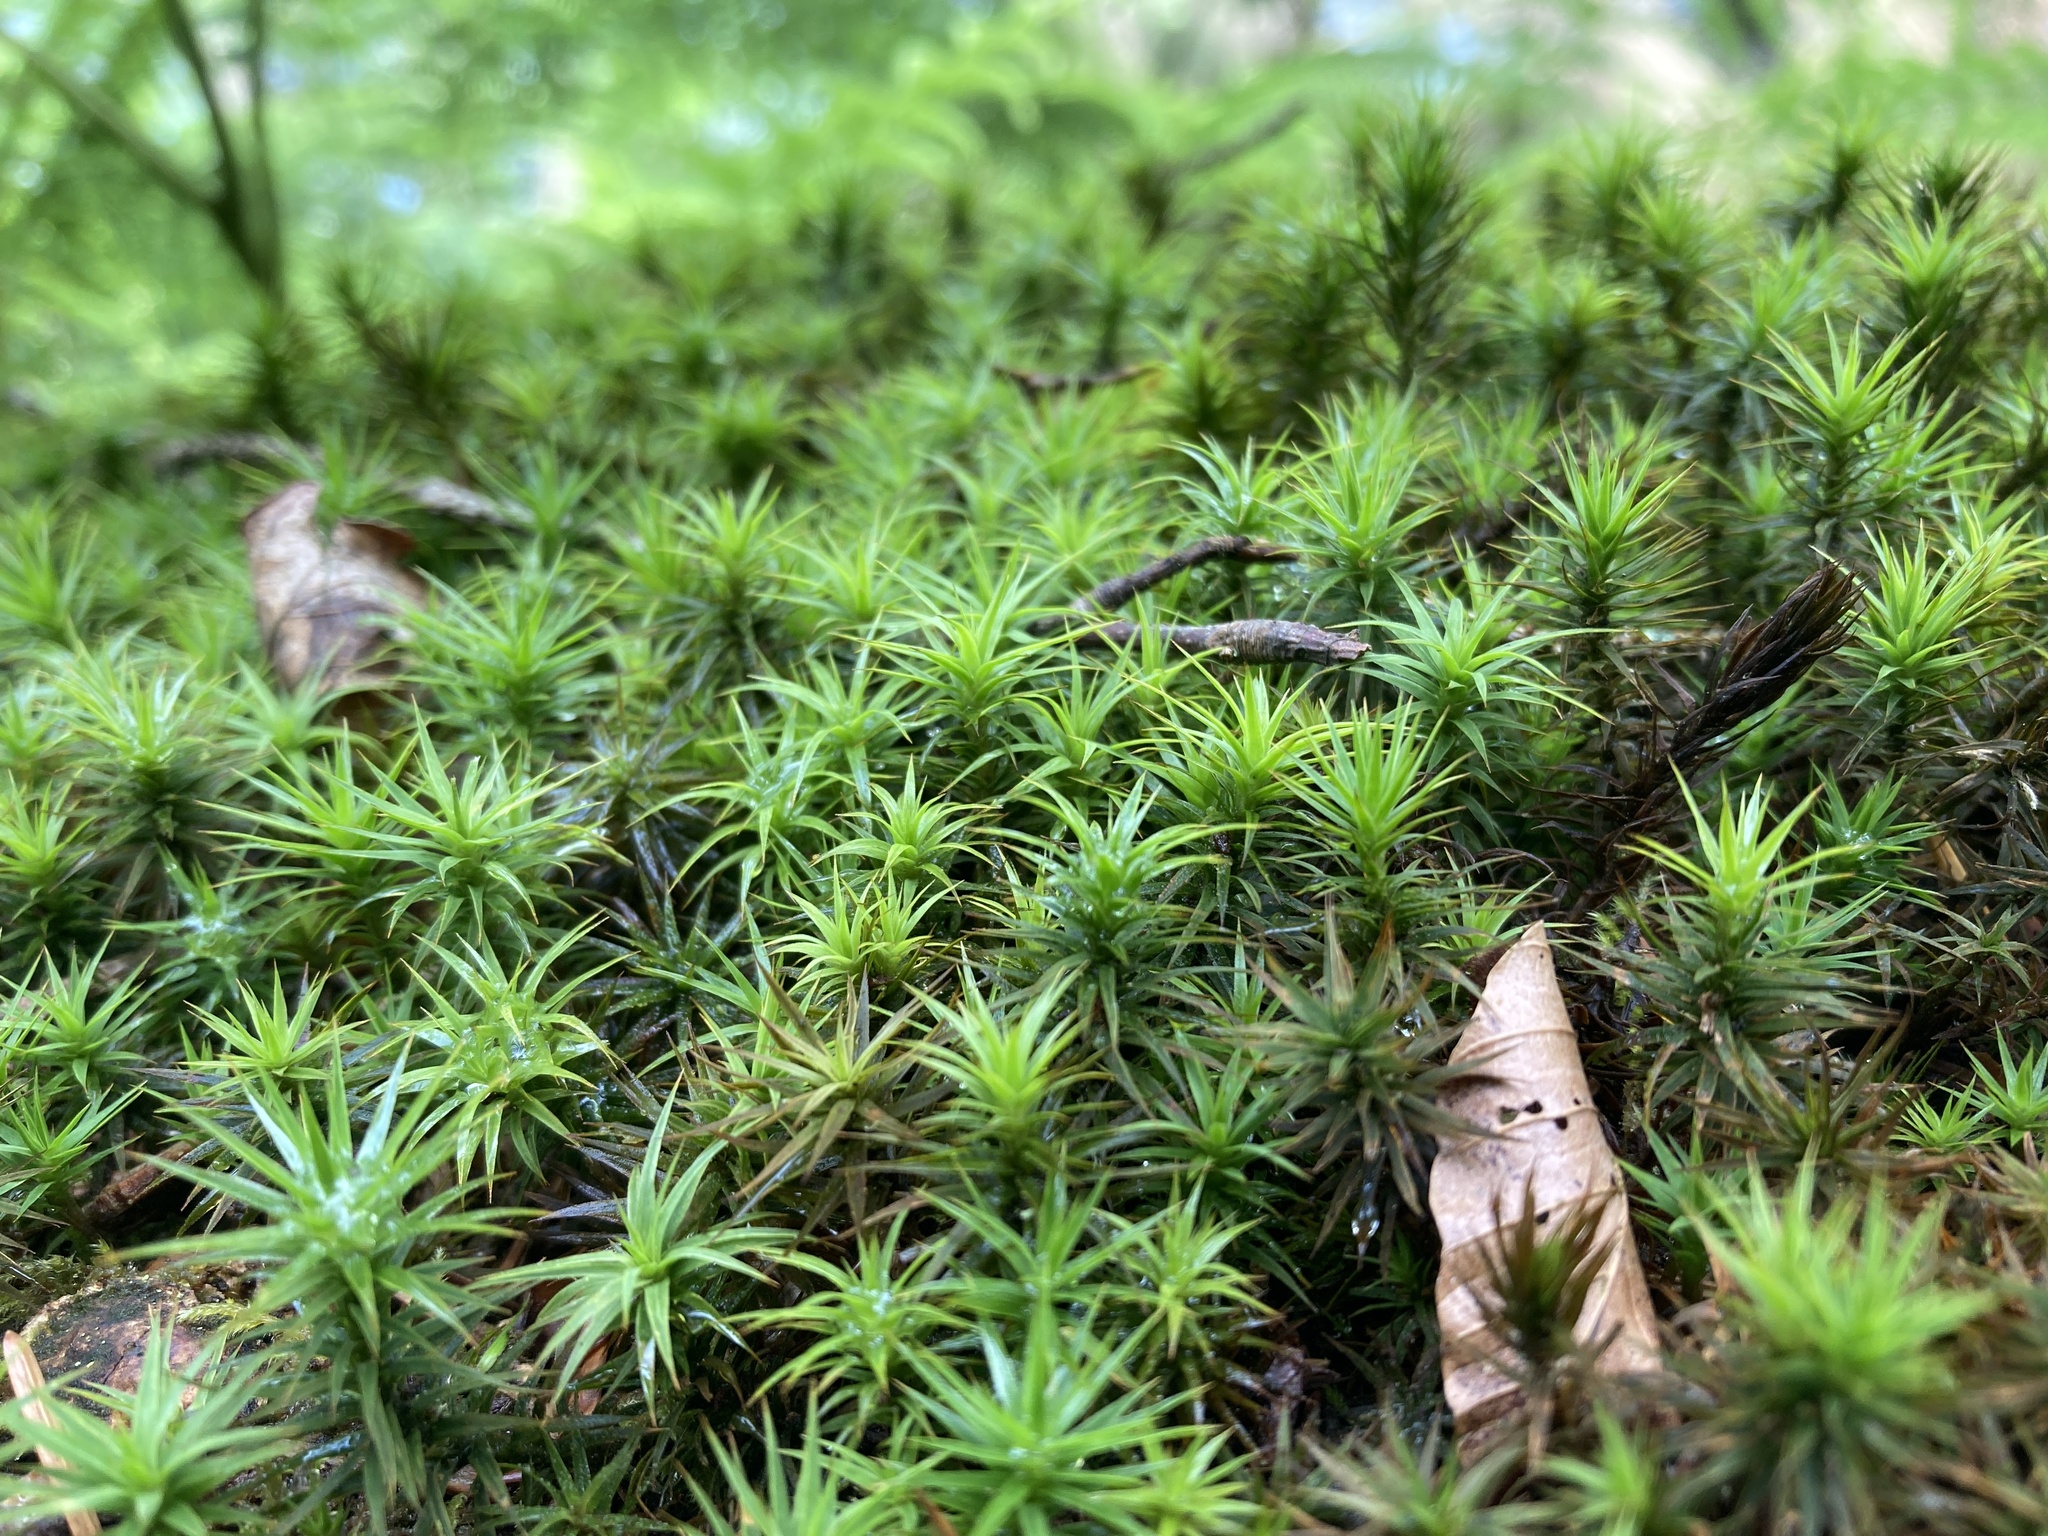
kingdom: Plantae
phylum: Bryophyta
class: Polytrichopsida
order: Polytrichales
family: Polytrichaceae
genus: Polytrichum
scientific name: Polytrichum formosum
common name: Bank haircap moss
